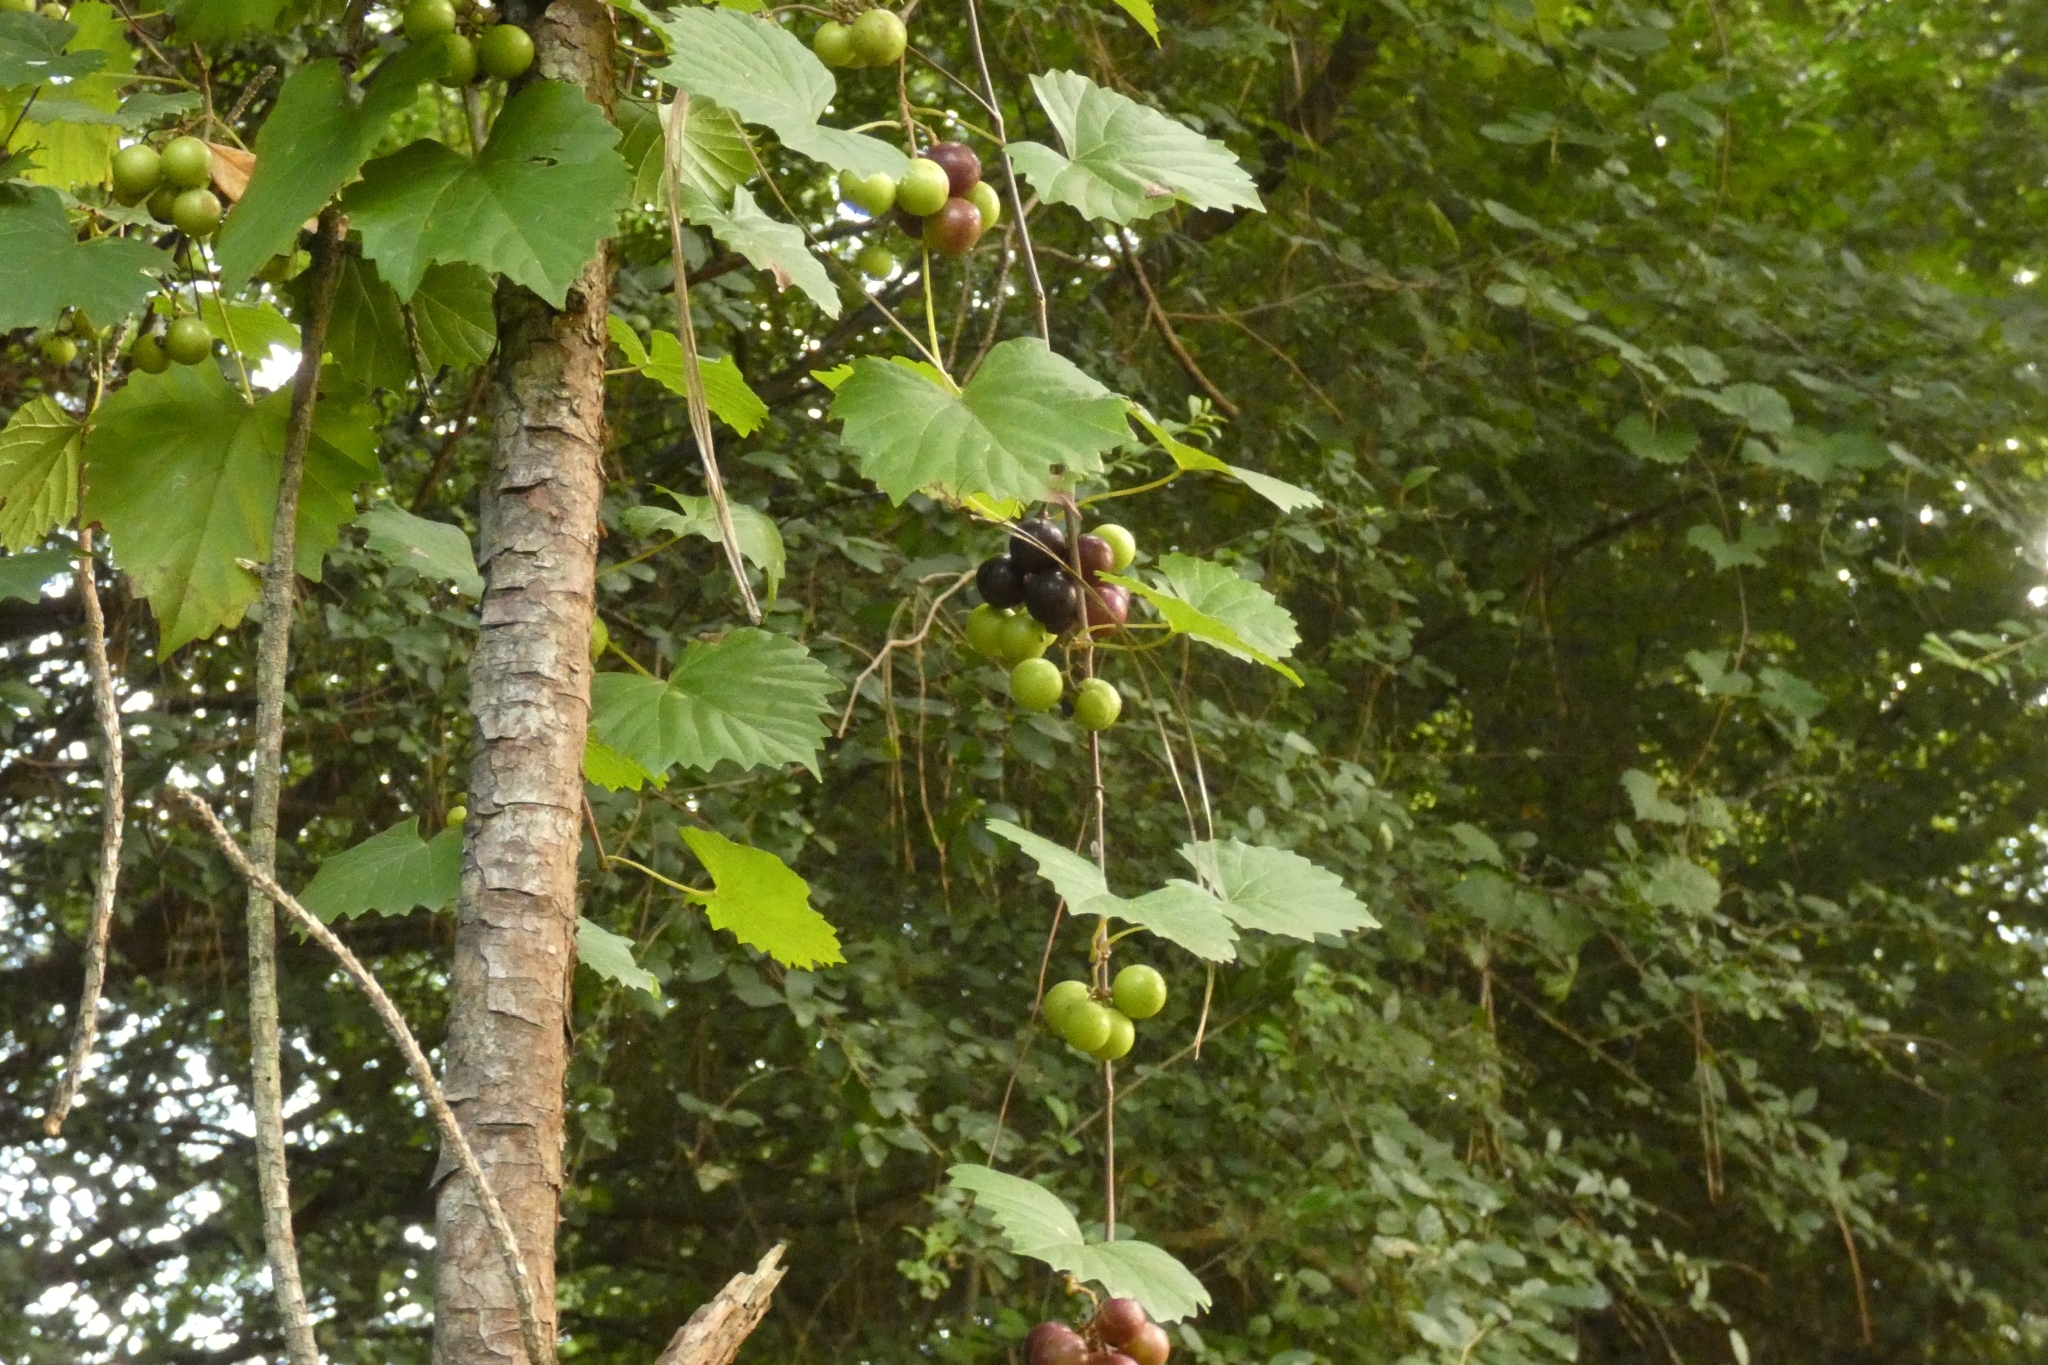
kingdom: Plantae
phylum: Tracheophyta
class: Magnoliopsida
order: Vitales
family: Vitaceae
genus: Vitis
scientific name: Vitis rotundifolia
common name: Muscadine grape
